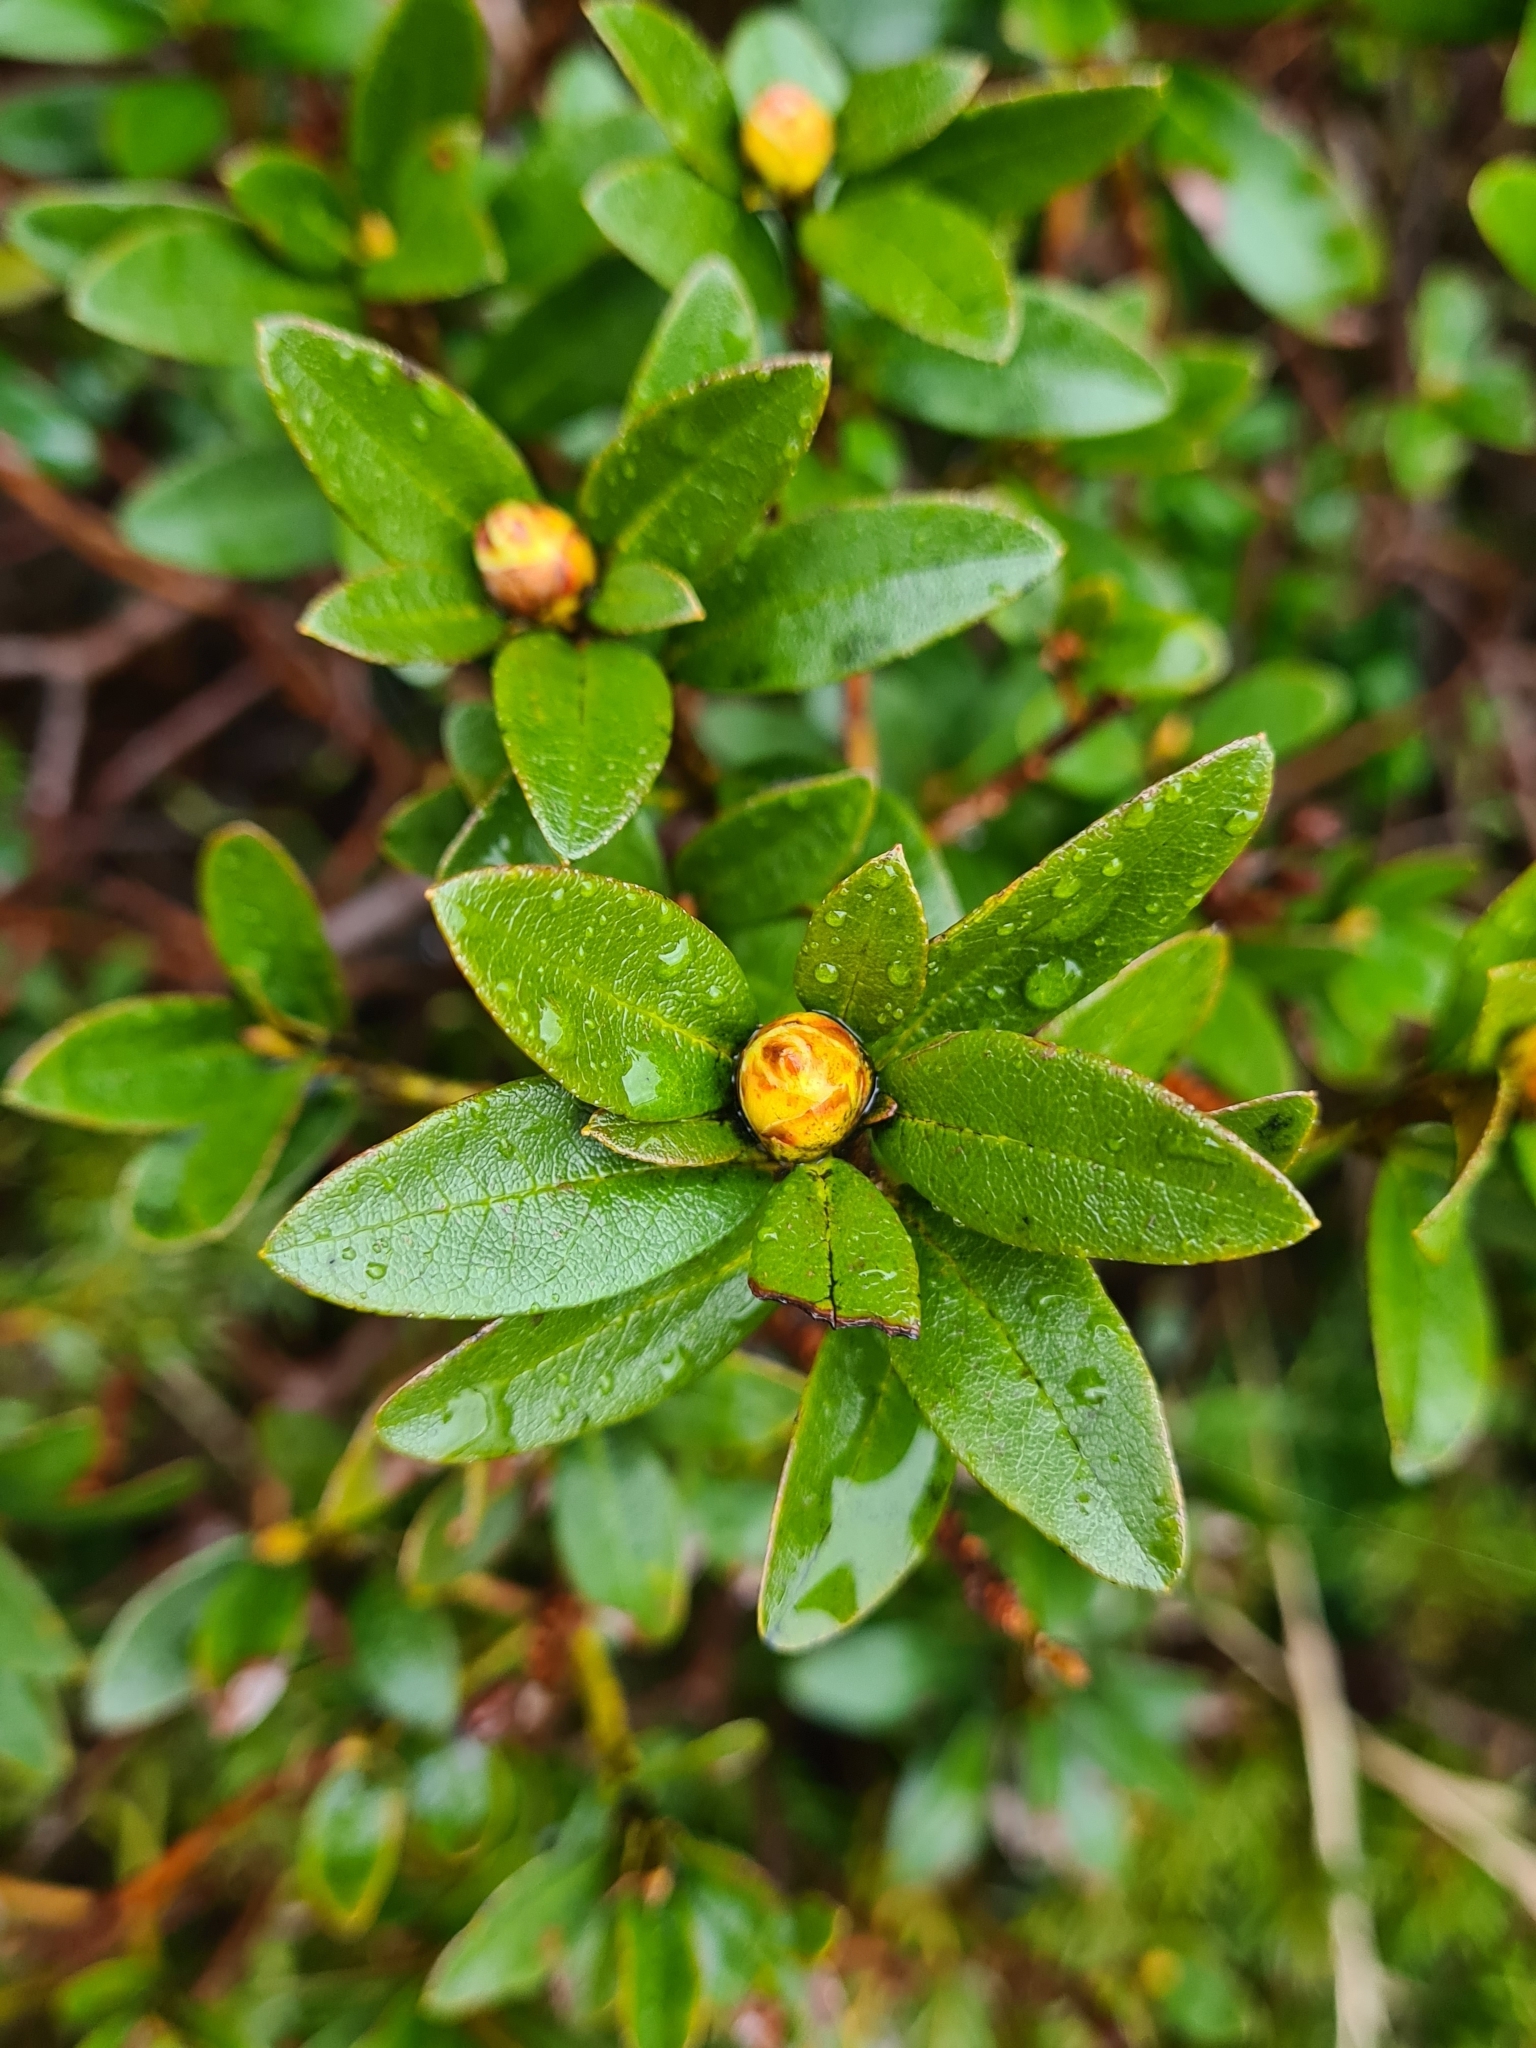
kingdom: Plantae
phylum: Tracheophyta
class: Magnoliopsida
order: Ericales
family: Ericaceae
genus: Rhododendron
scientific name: Rhododendron ferrugineum
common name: Alpenrose
